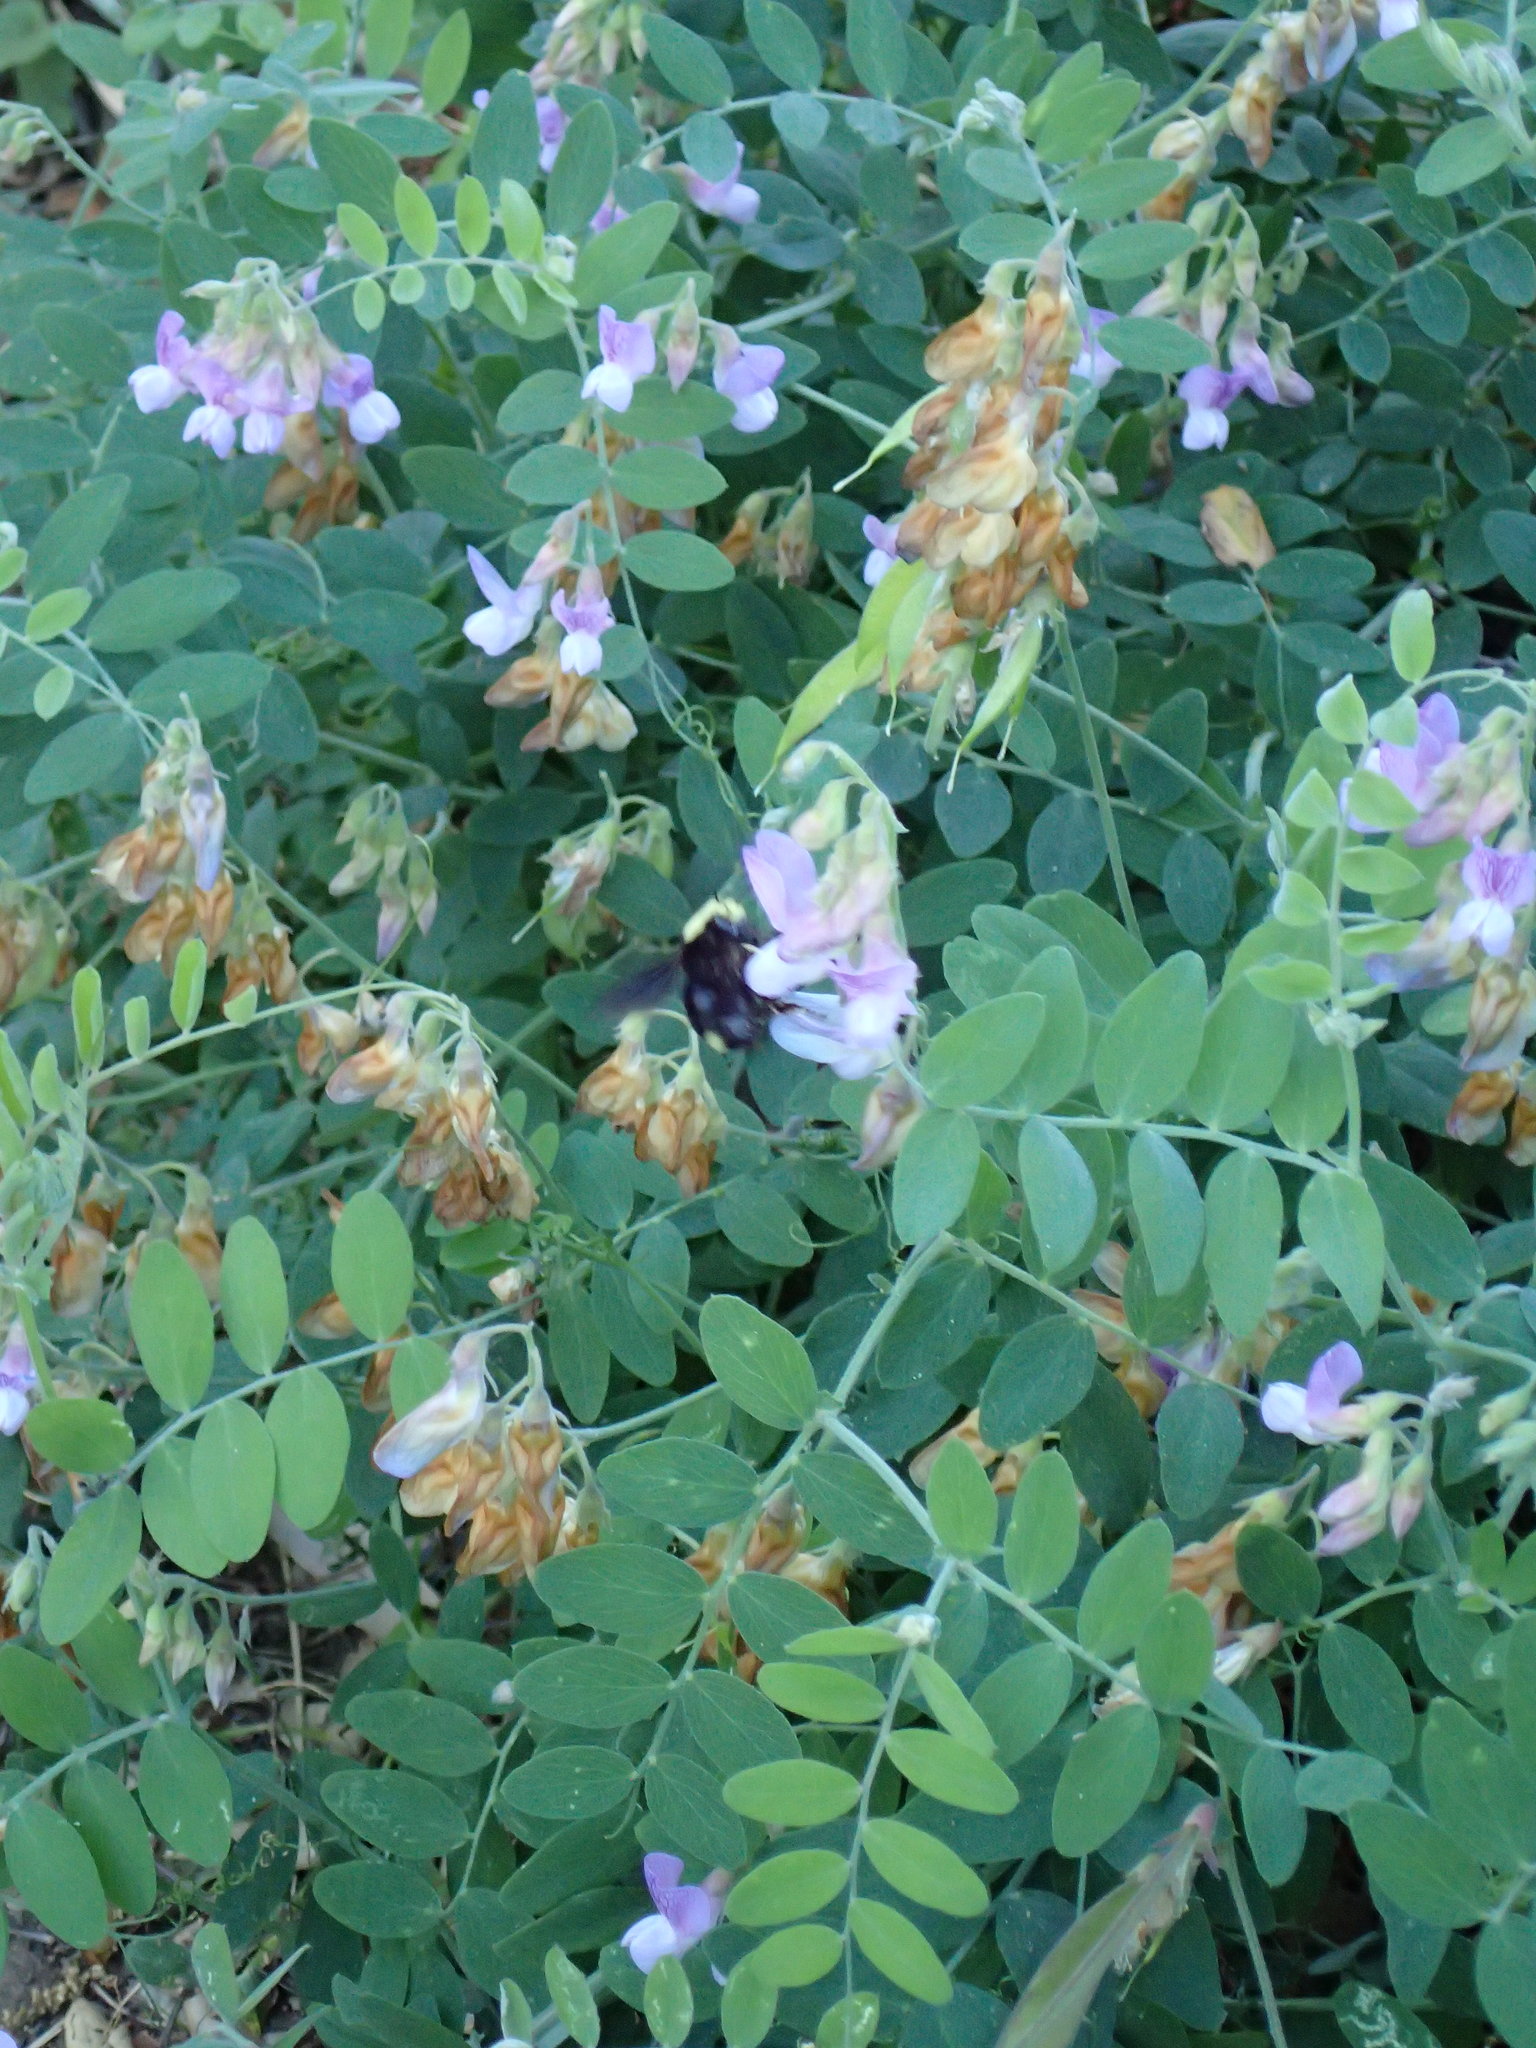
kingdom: Animalia
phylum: Arthropoda
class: Insecta
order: Hymenoptera
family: Apidae
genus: Bombus
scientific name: Bombus vosnesenskii
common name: Vosnesensky bumble bee
